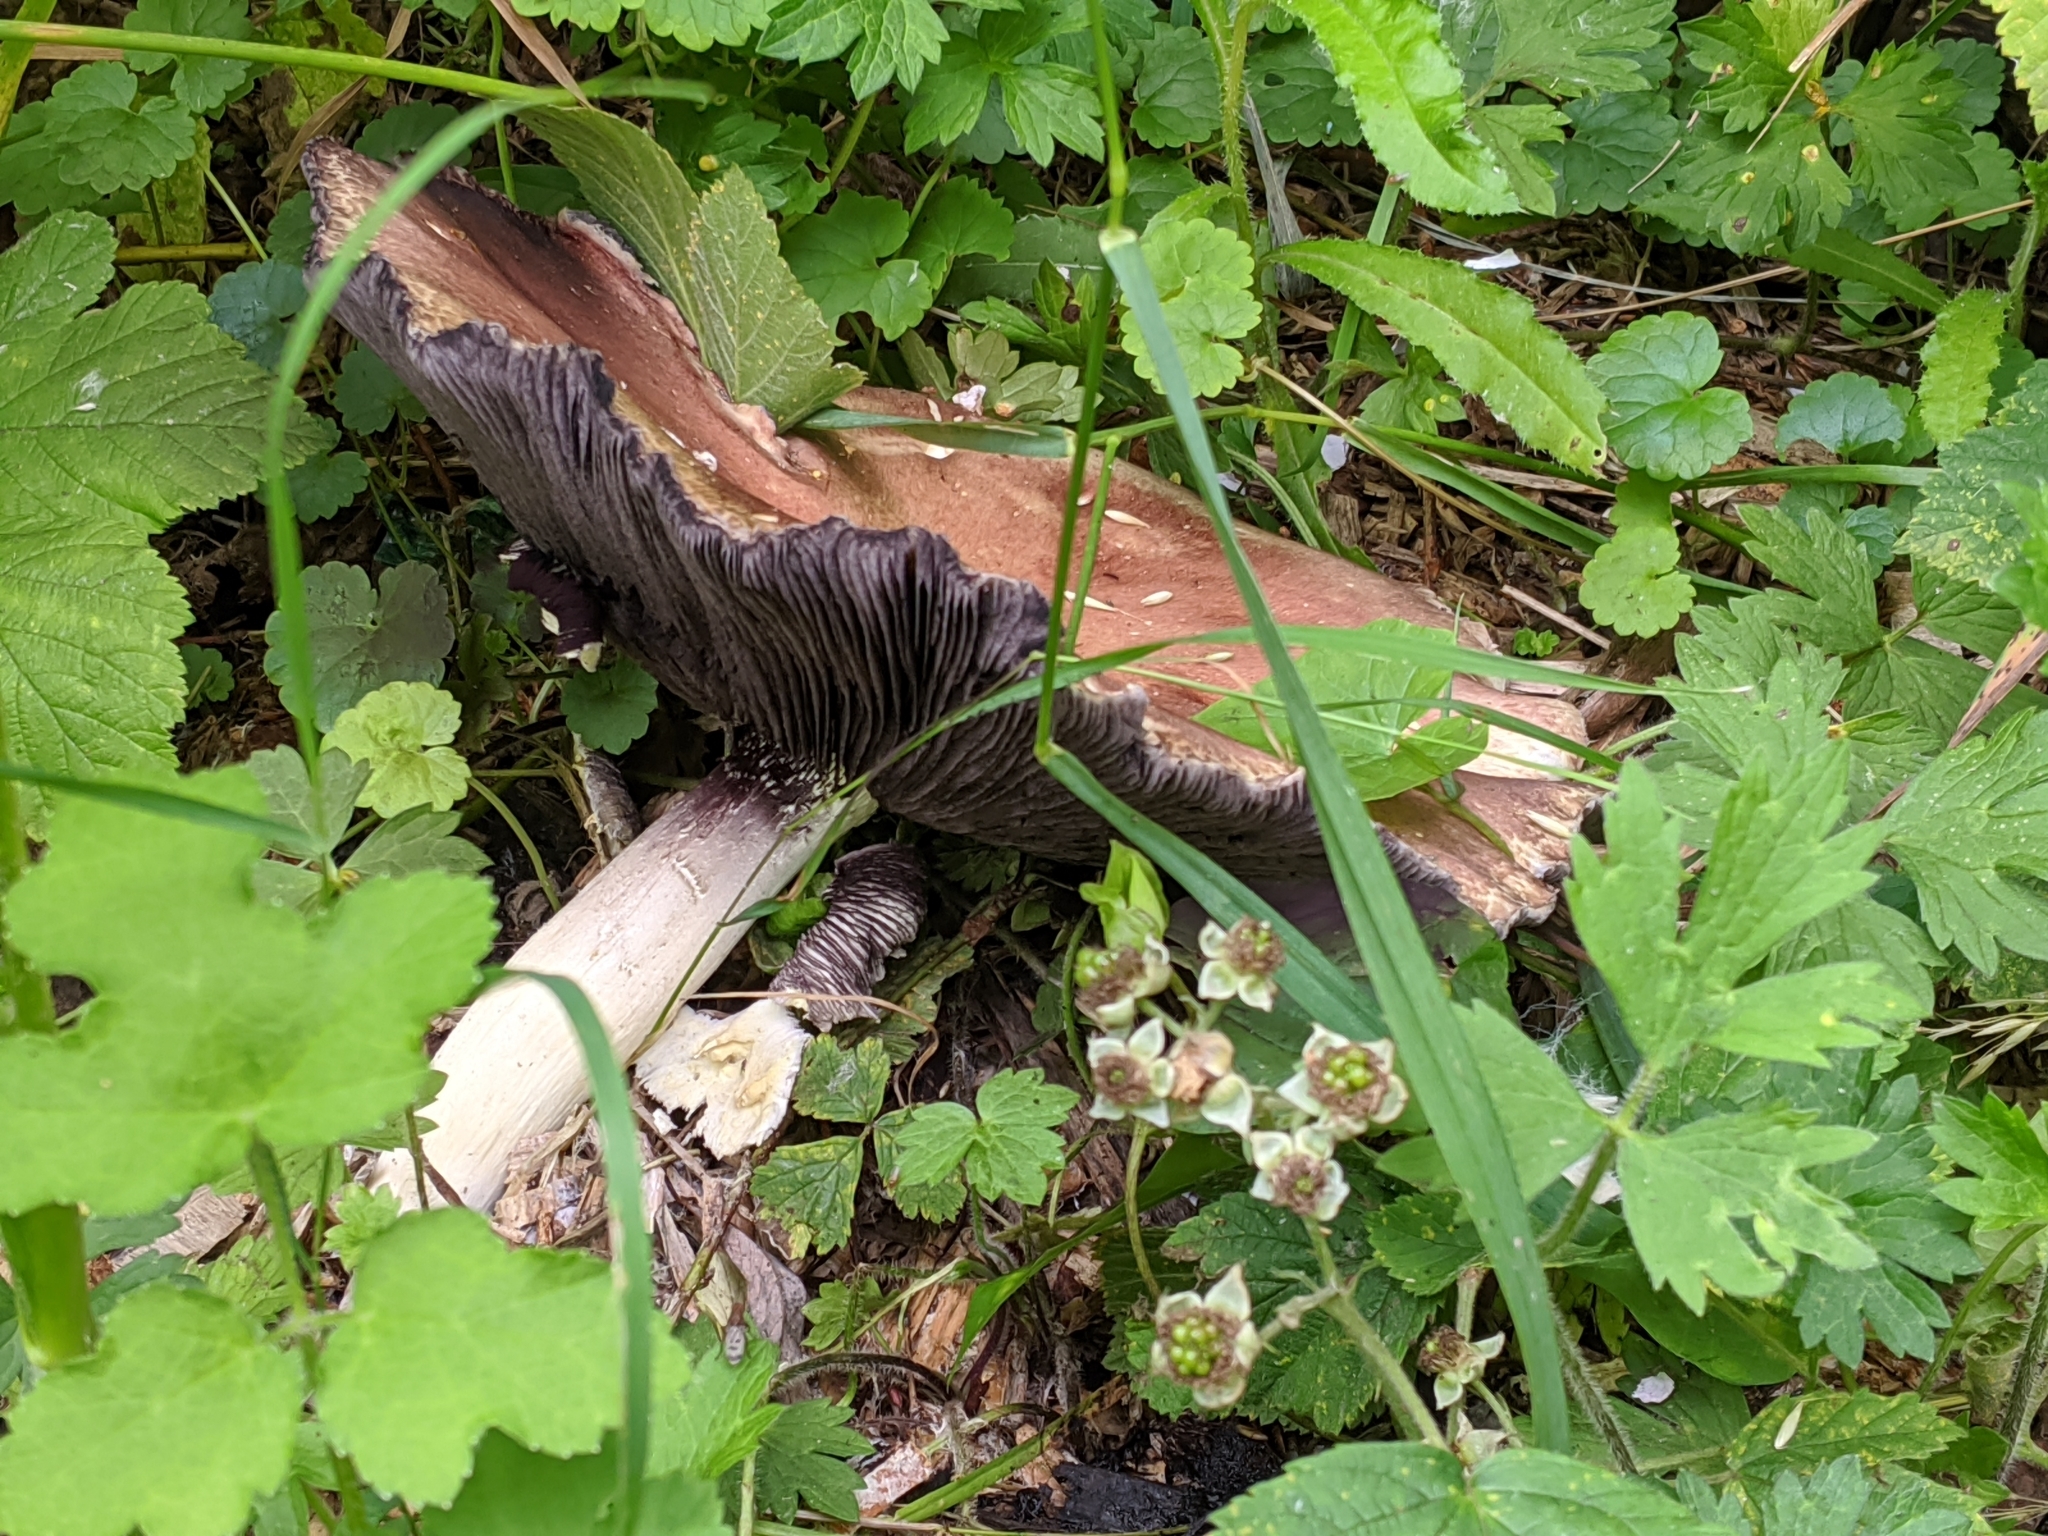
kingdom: Fungi
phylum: Basidiomycota
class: Agaricomycetes
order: Agaricales
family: Strophariaceae
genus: Stropharia
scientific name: Stropharia rugosoannulata
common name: Wine roundhead
